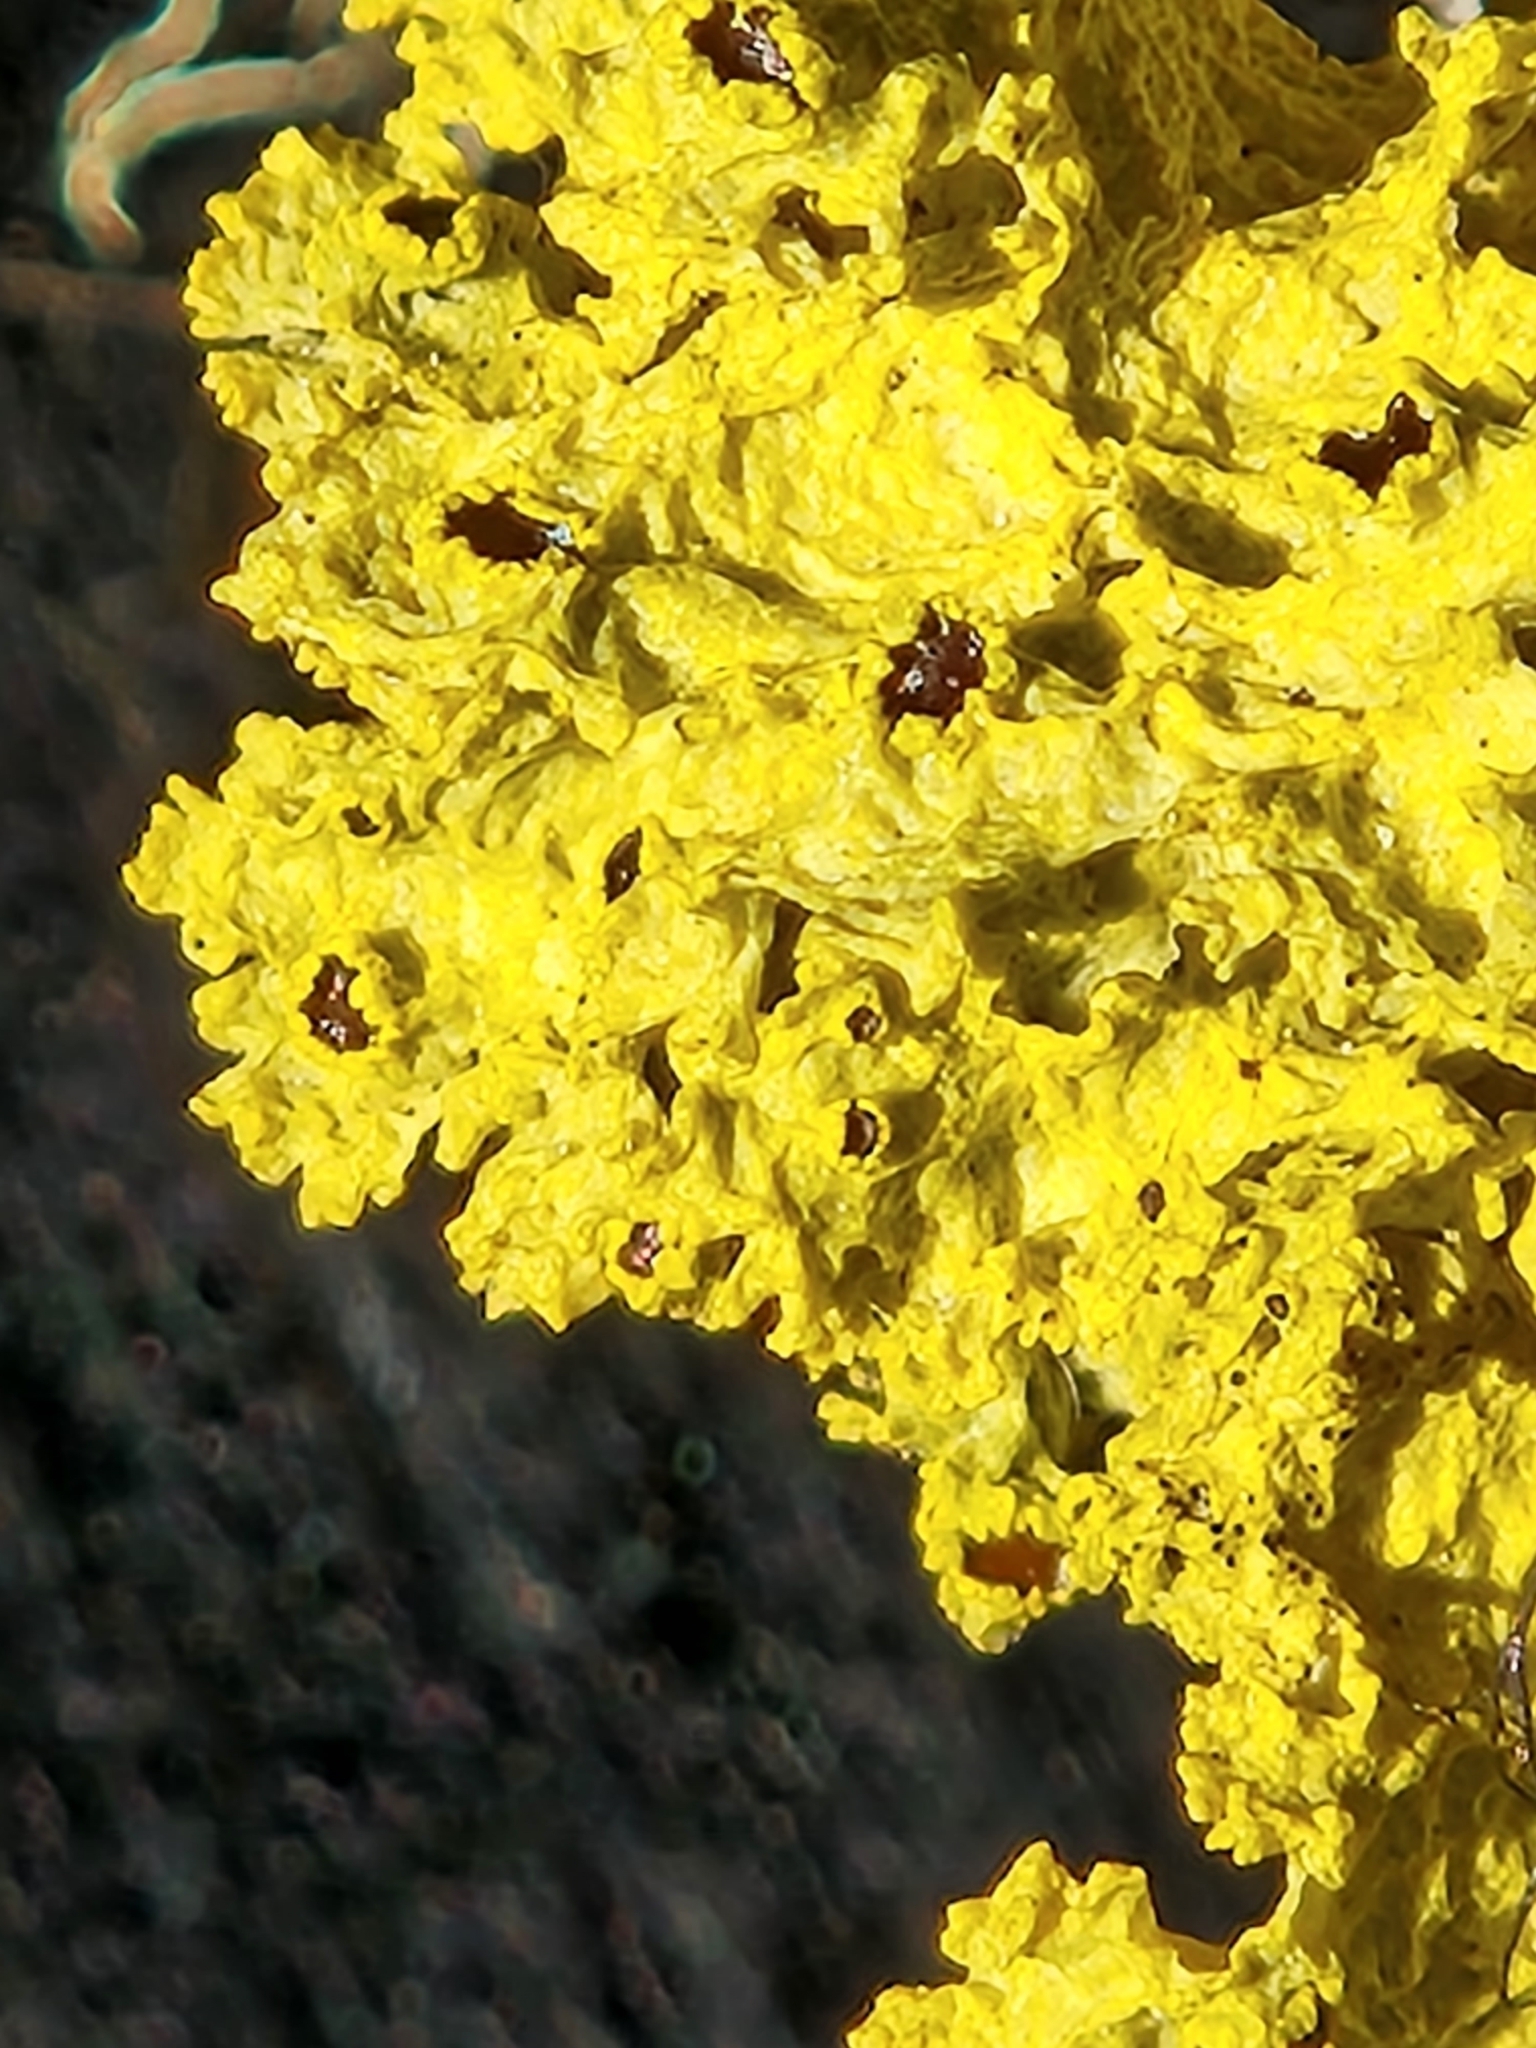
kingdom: Fungi
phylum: Ascomycota
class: Lecanoromycetes
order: Lecanorales
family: Parmeliaceae
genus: Vulpicida
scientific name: Vulpicida canadensis
